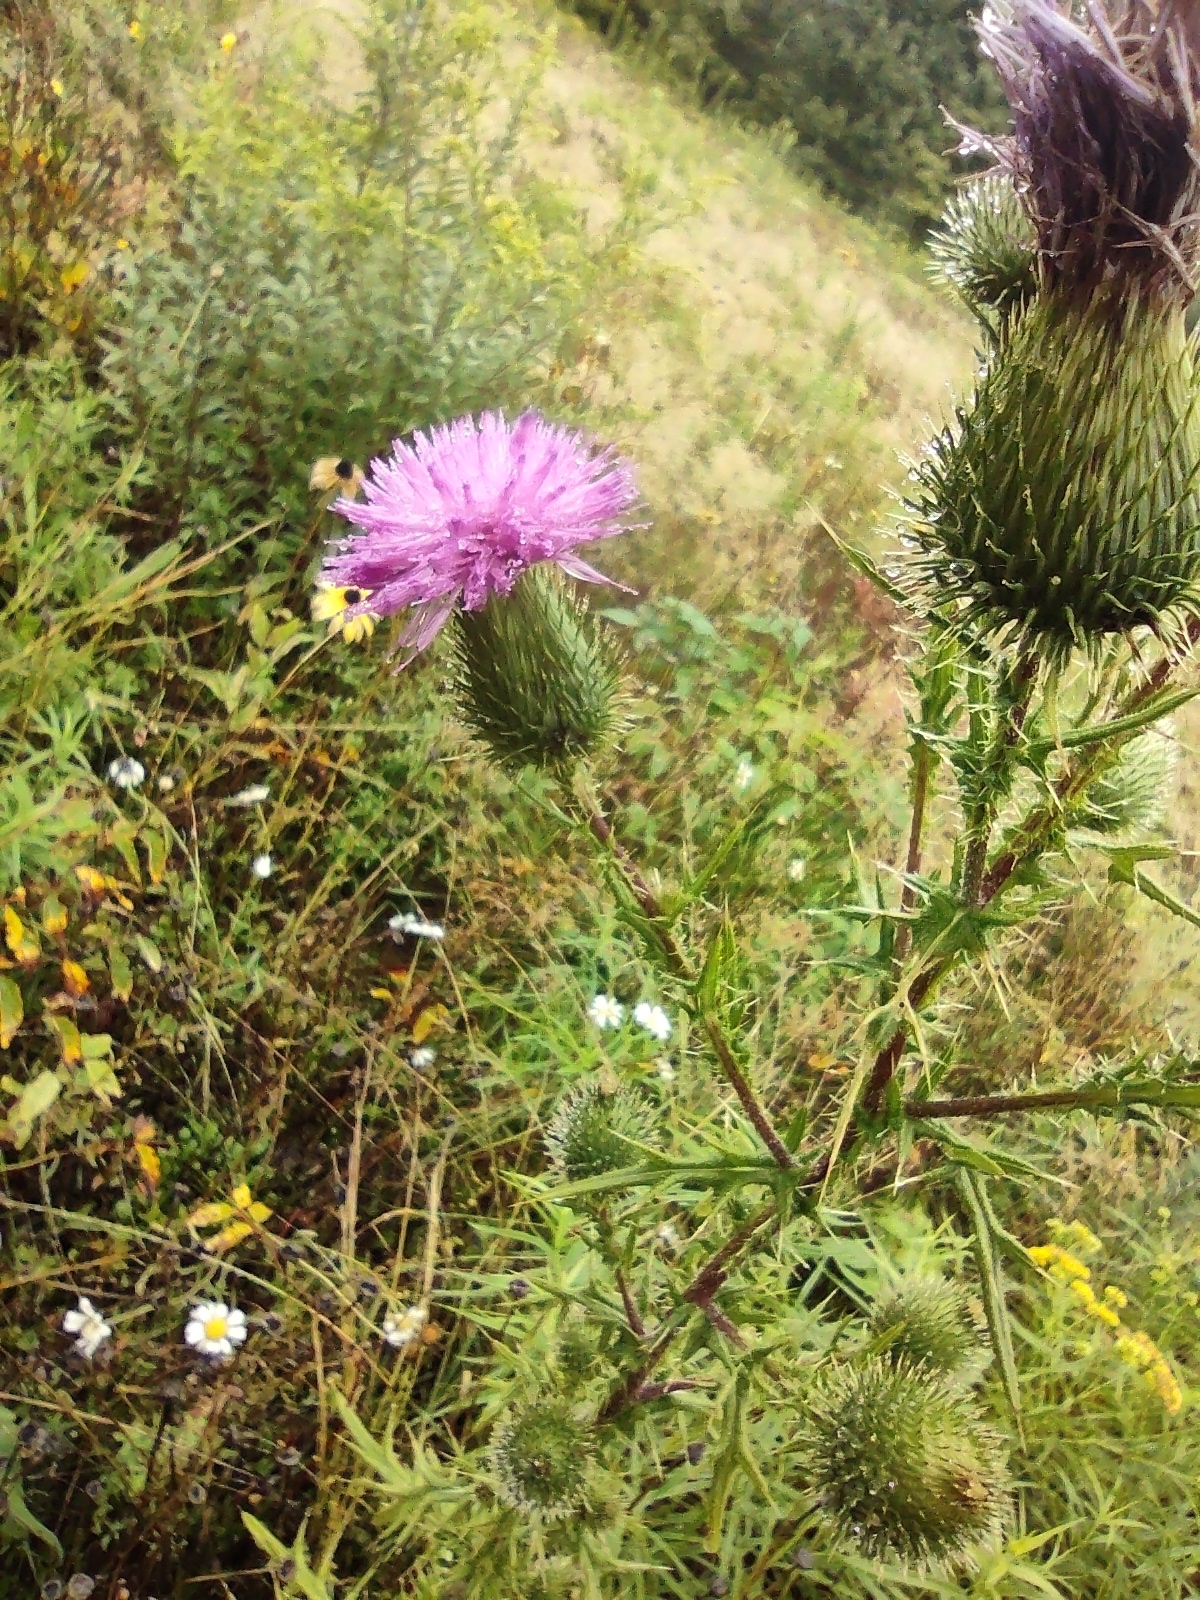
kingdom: Plantae
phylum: Tracheophyta
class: Magnoliopsida
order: Asterales
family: Asteraceae
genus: Cirsium
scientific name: Cirsium vulgare
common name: Bull thistle
